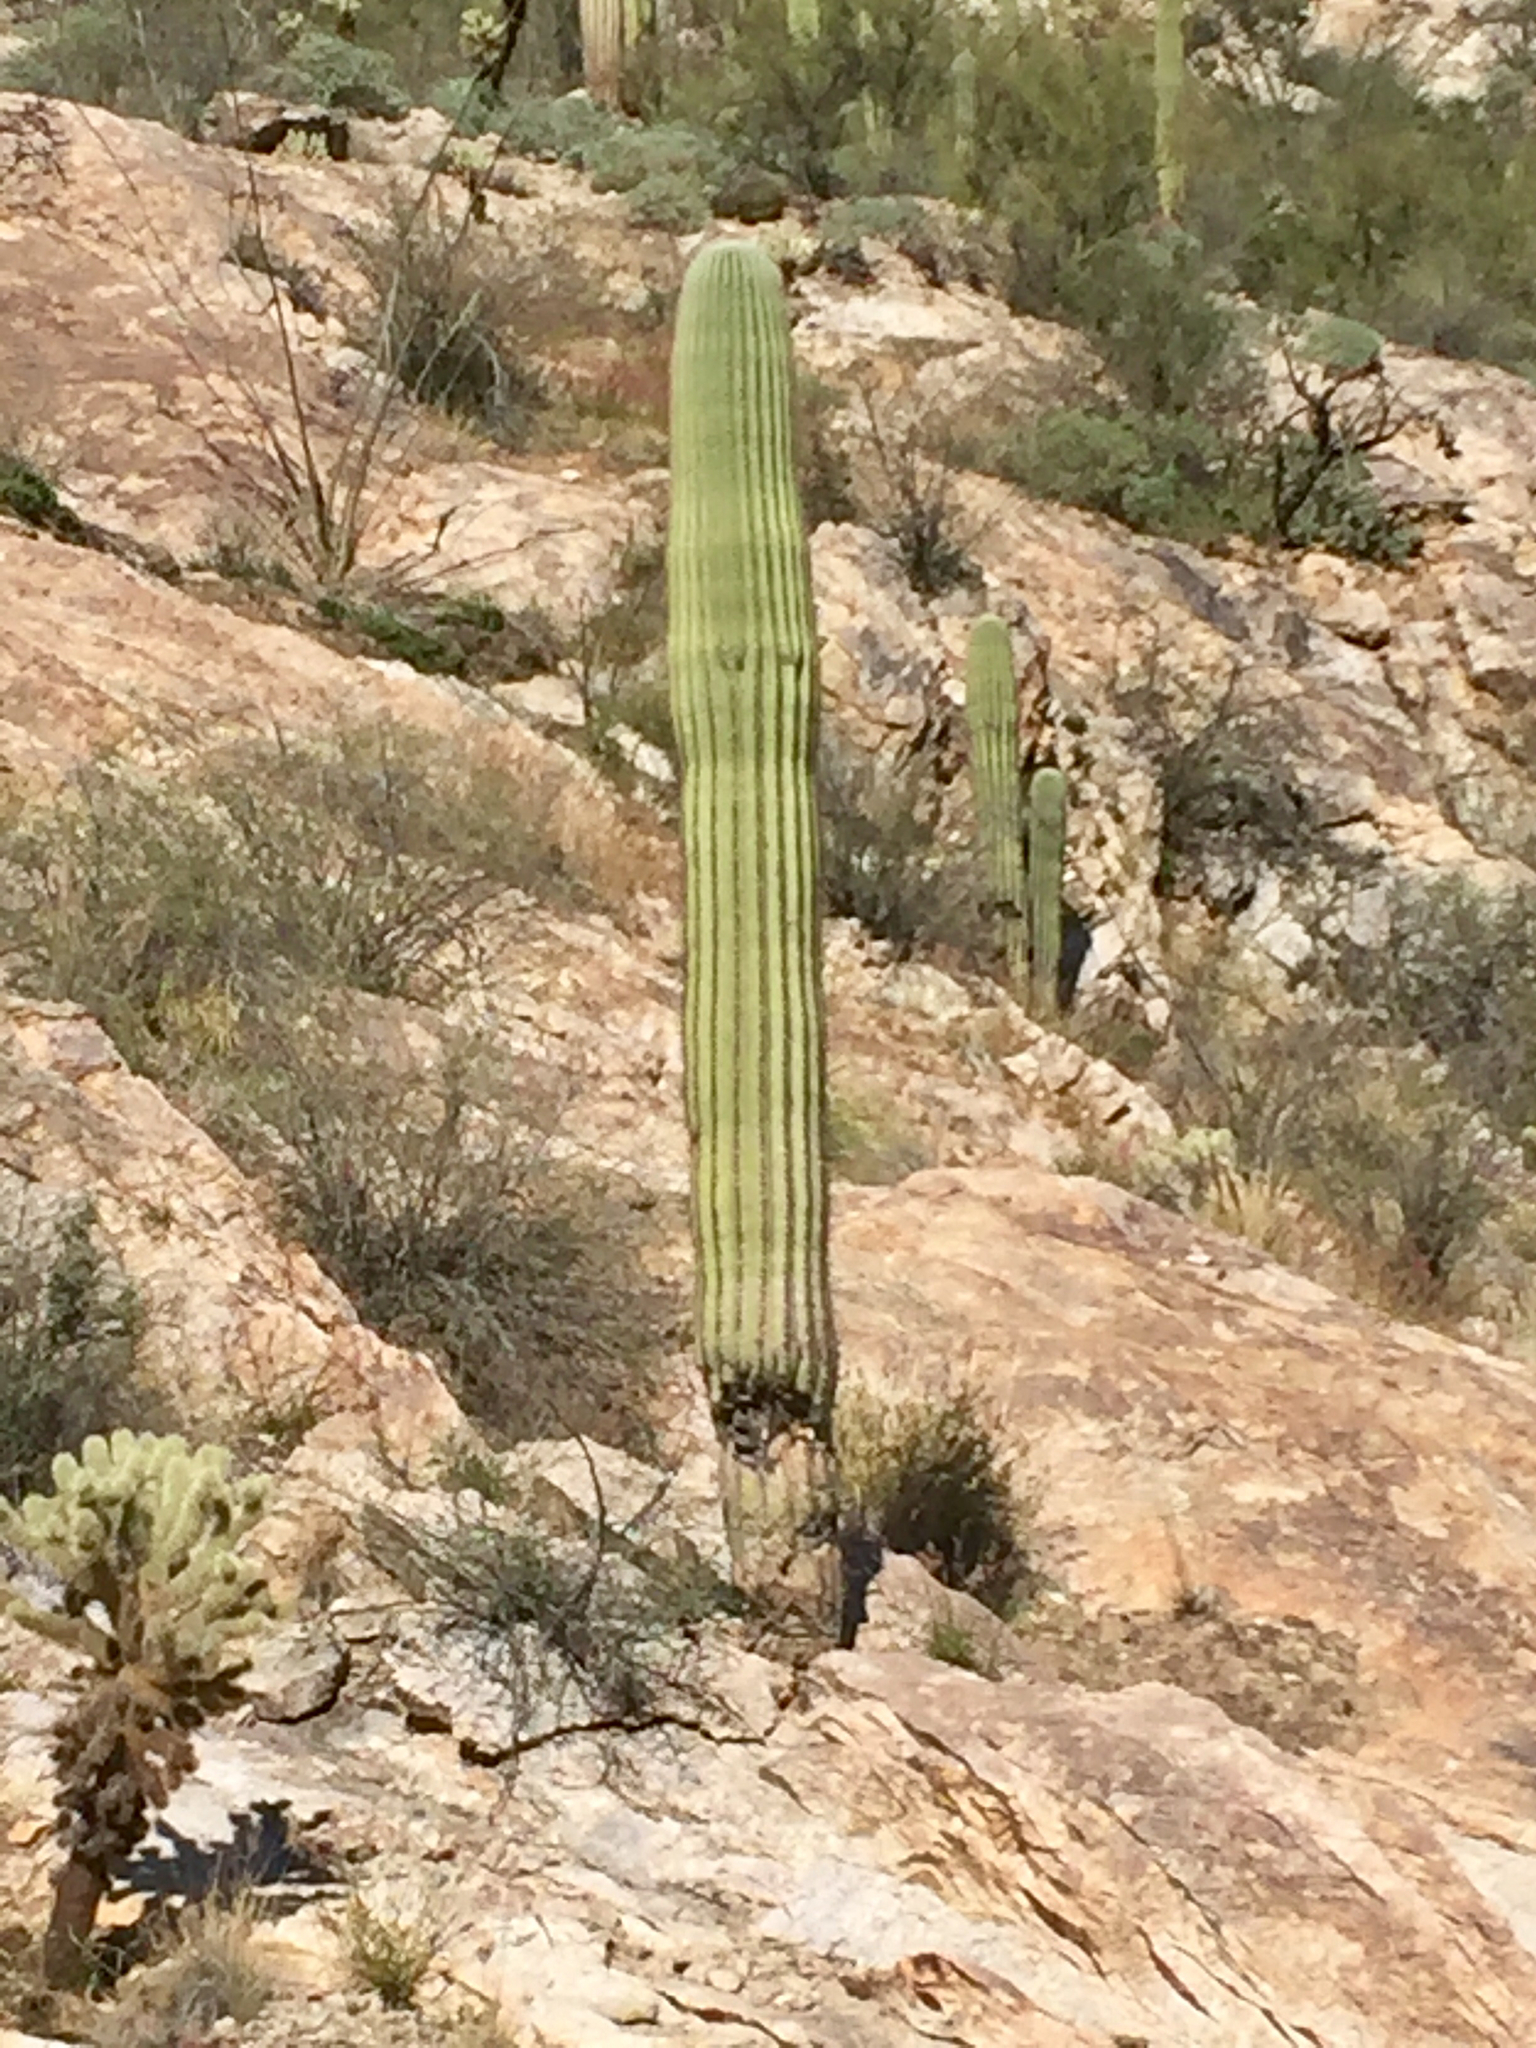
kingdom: Plantae
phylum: Tracheophyta
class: Magnoliopsida
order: Caryophyllales
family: Cactaceae
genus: Carnegiea
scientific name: Carnegiea gigantea
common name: Saguaro
